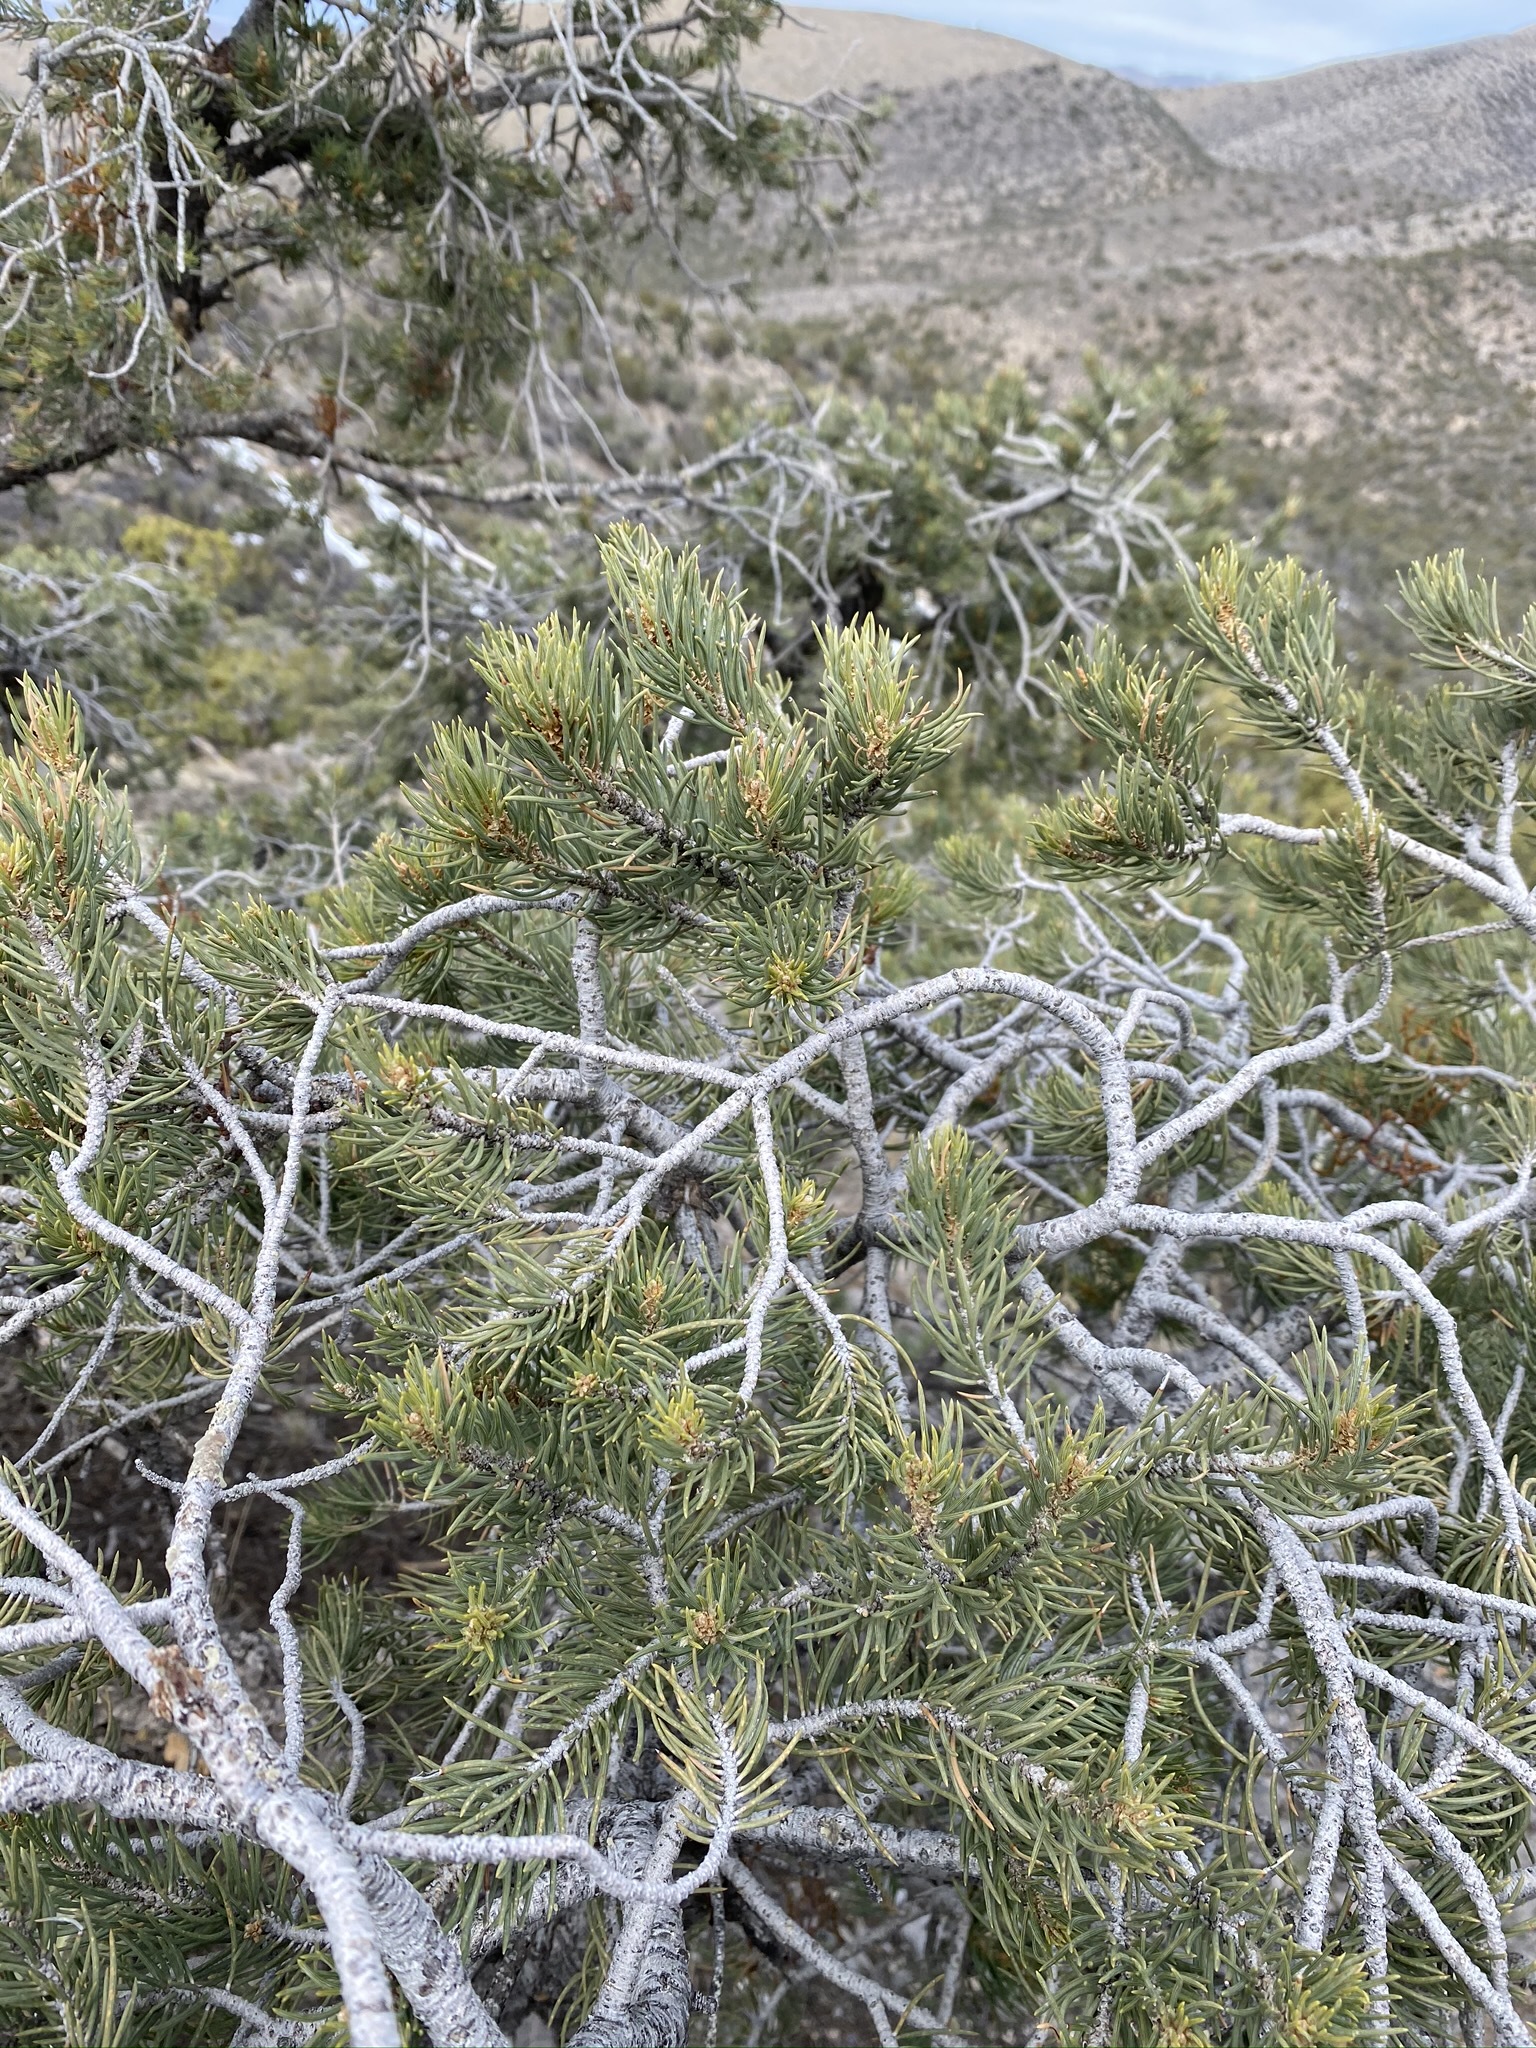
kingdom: Plantae
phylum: Tracheophyta
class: Pinopsida
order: Pinales
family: Pinaceae
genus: Pinus
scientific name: Pinus monophylla
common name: One-leaved nut pine
